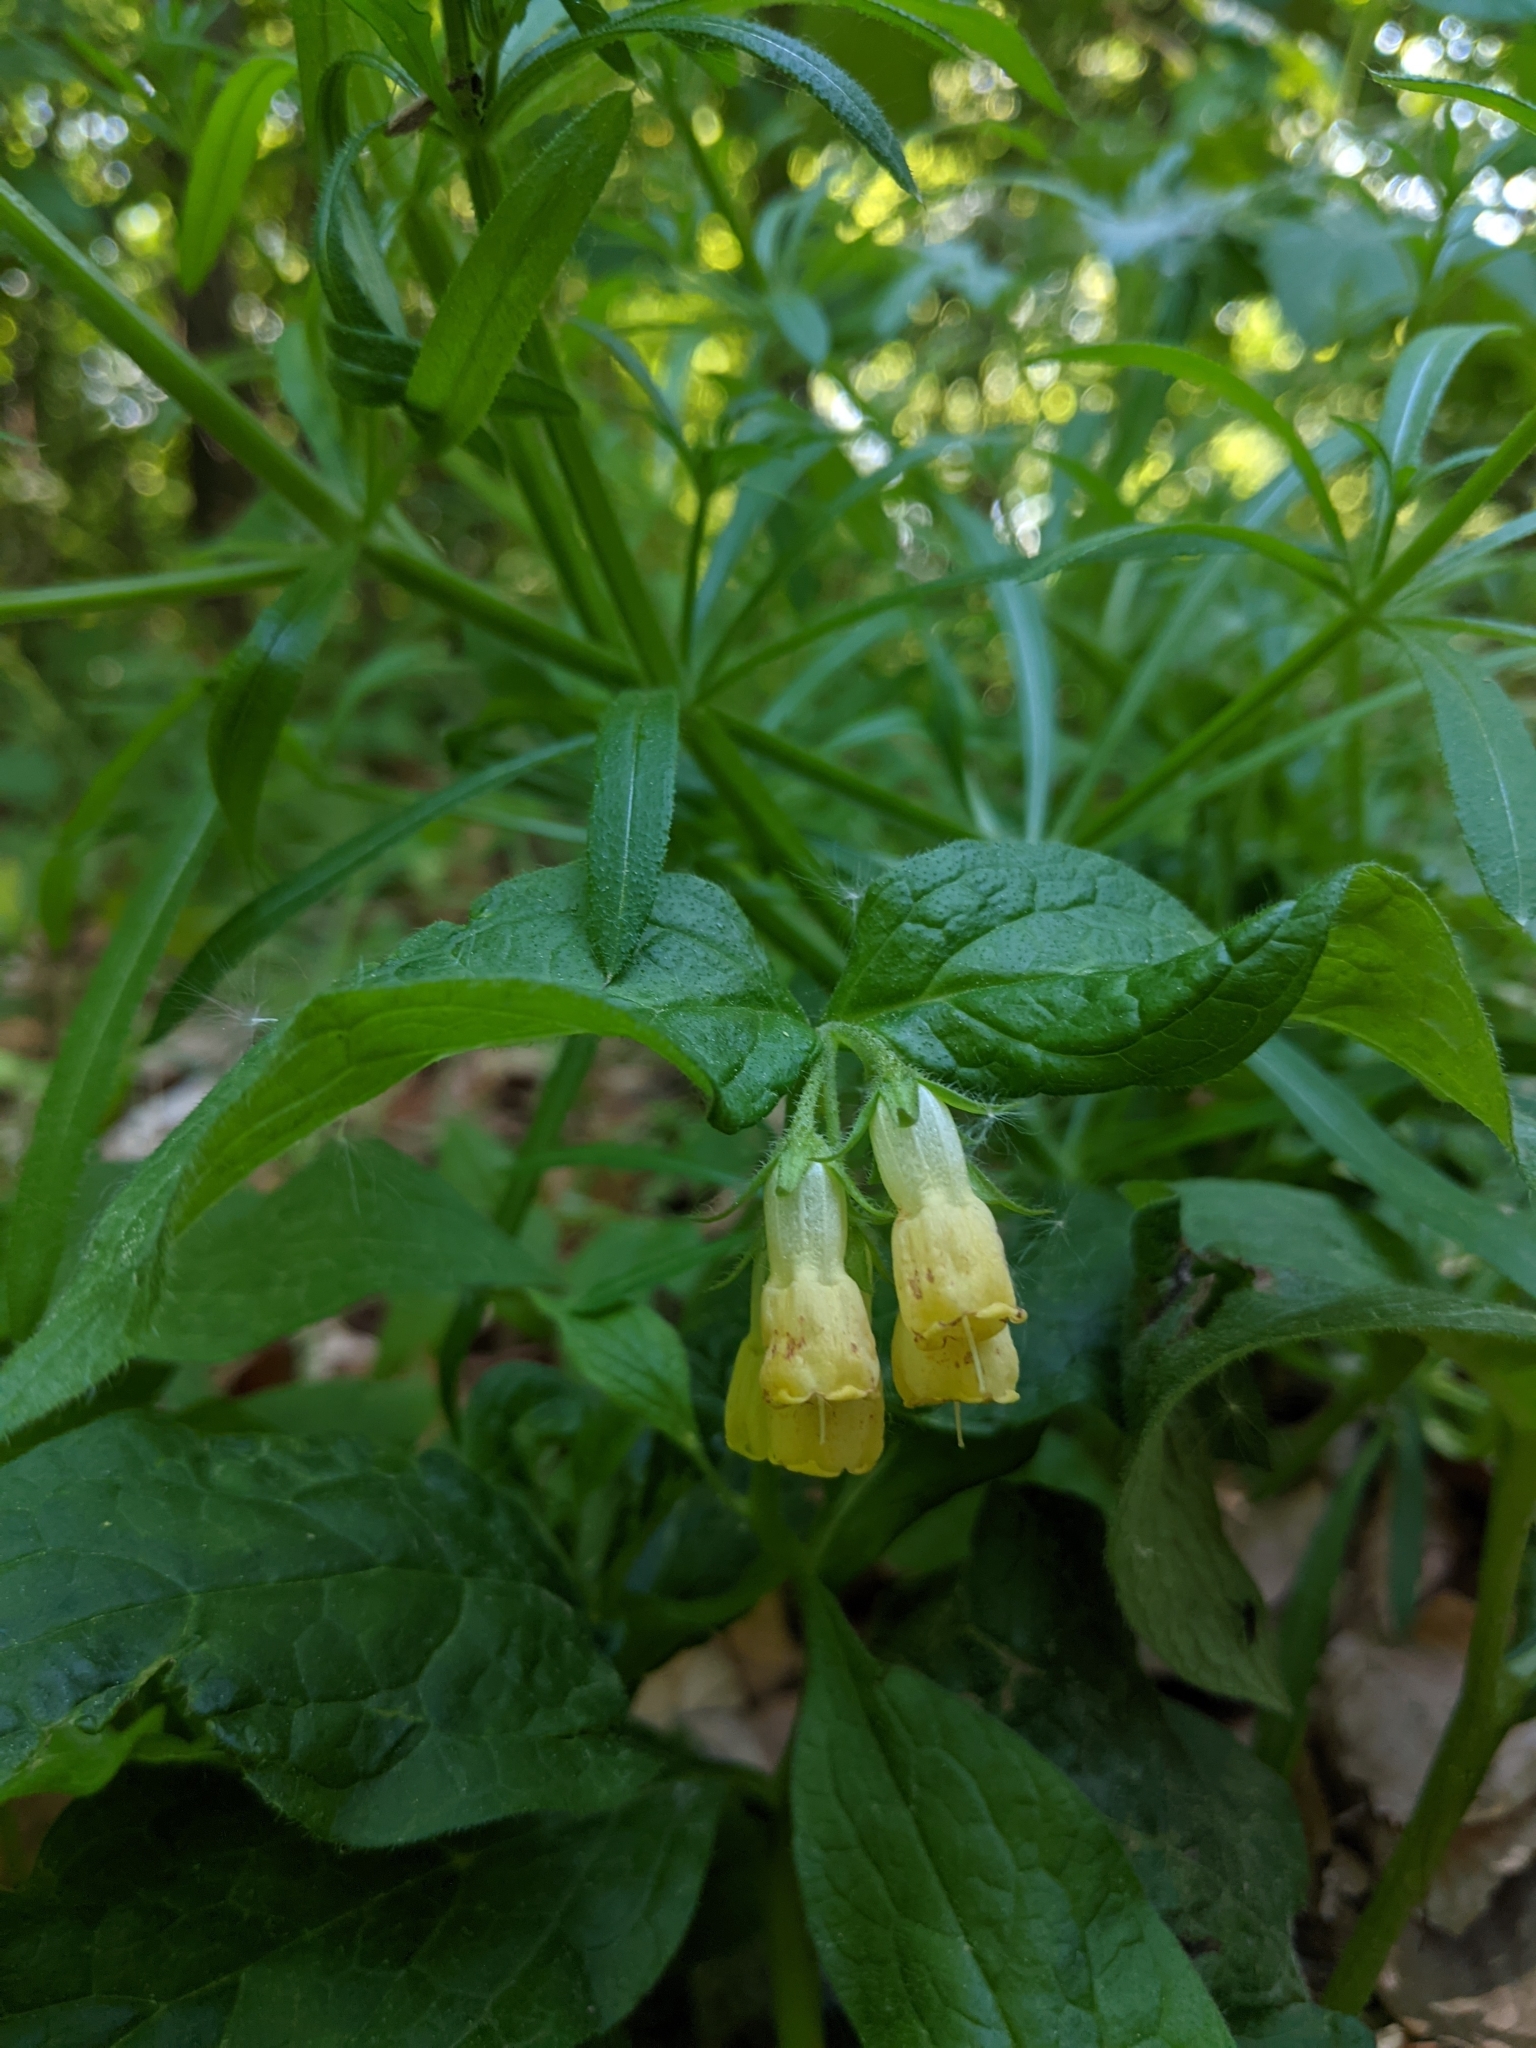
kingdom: Plantae
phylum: Tracheophyta
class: Magnoliopsida
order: Boraginales
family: Boraginaceae
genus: Symphytum
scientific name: Symphytum tuberosum
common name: Tuberous comfrey
